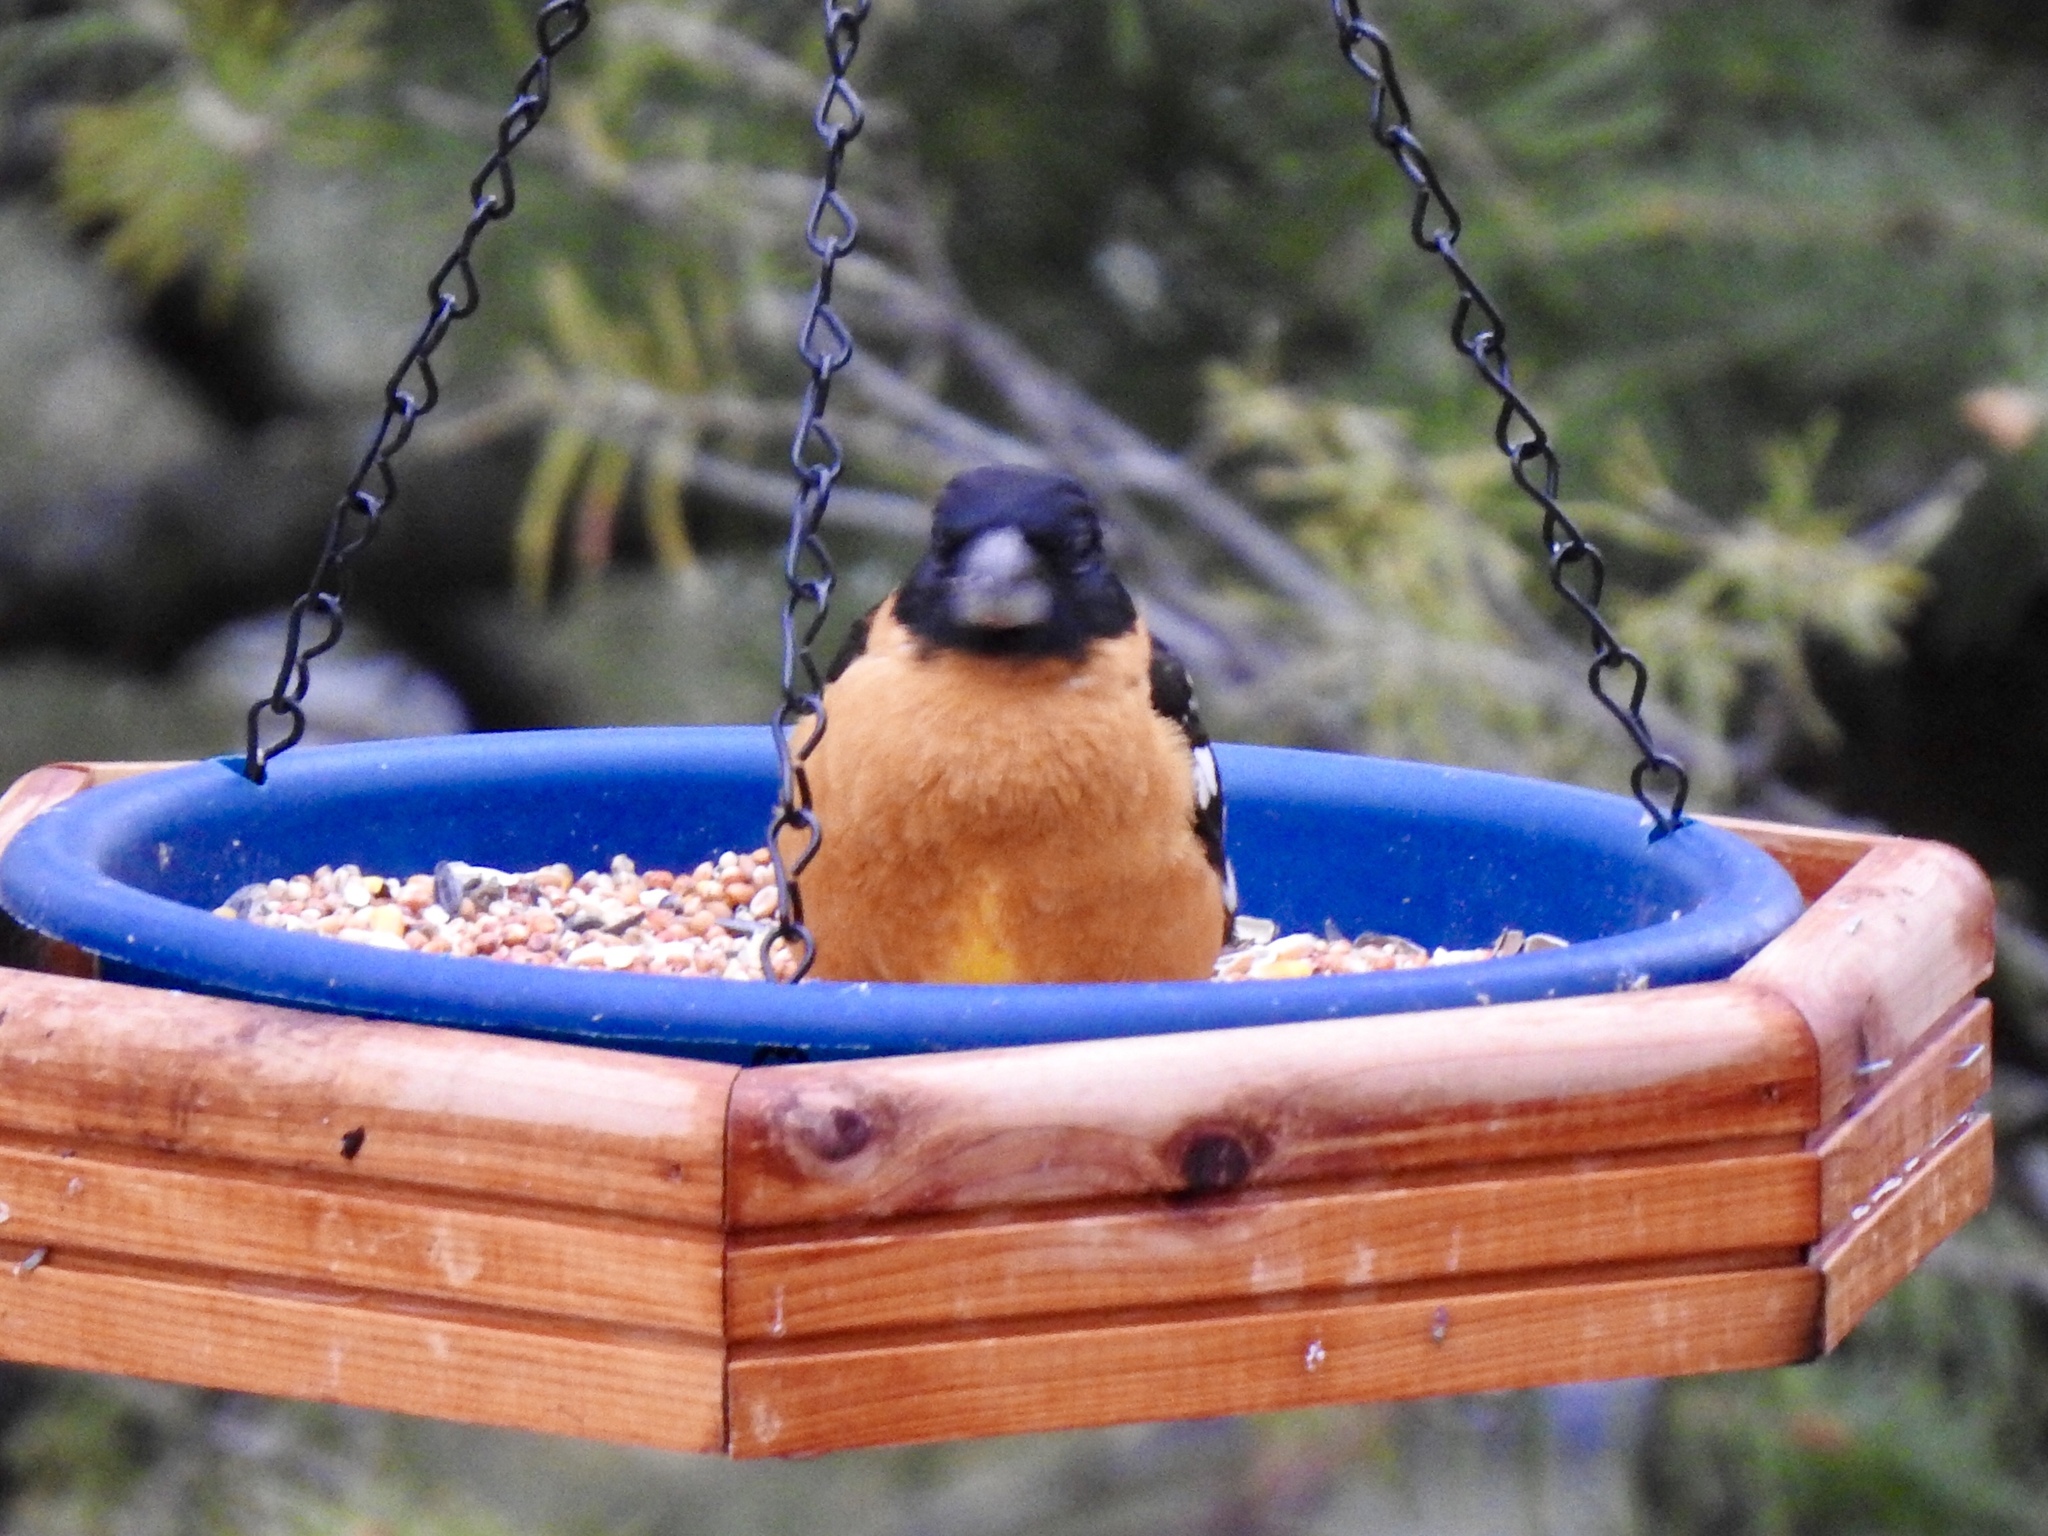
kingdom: Animalia
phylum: Chordata
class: Aves
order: Passeriformes
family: Cardinalidae
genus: Pheucticus
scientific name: Pheucticus melanocephalus
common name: Black-headed grosbeak
